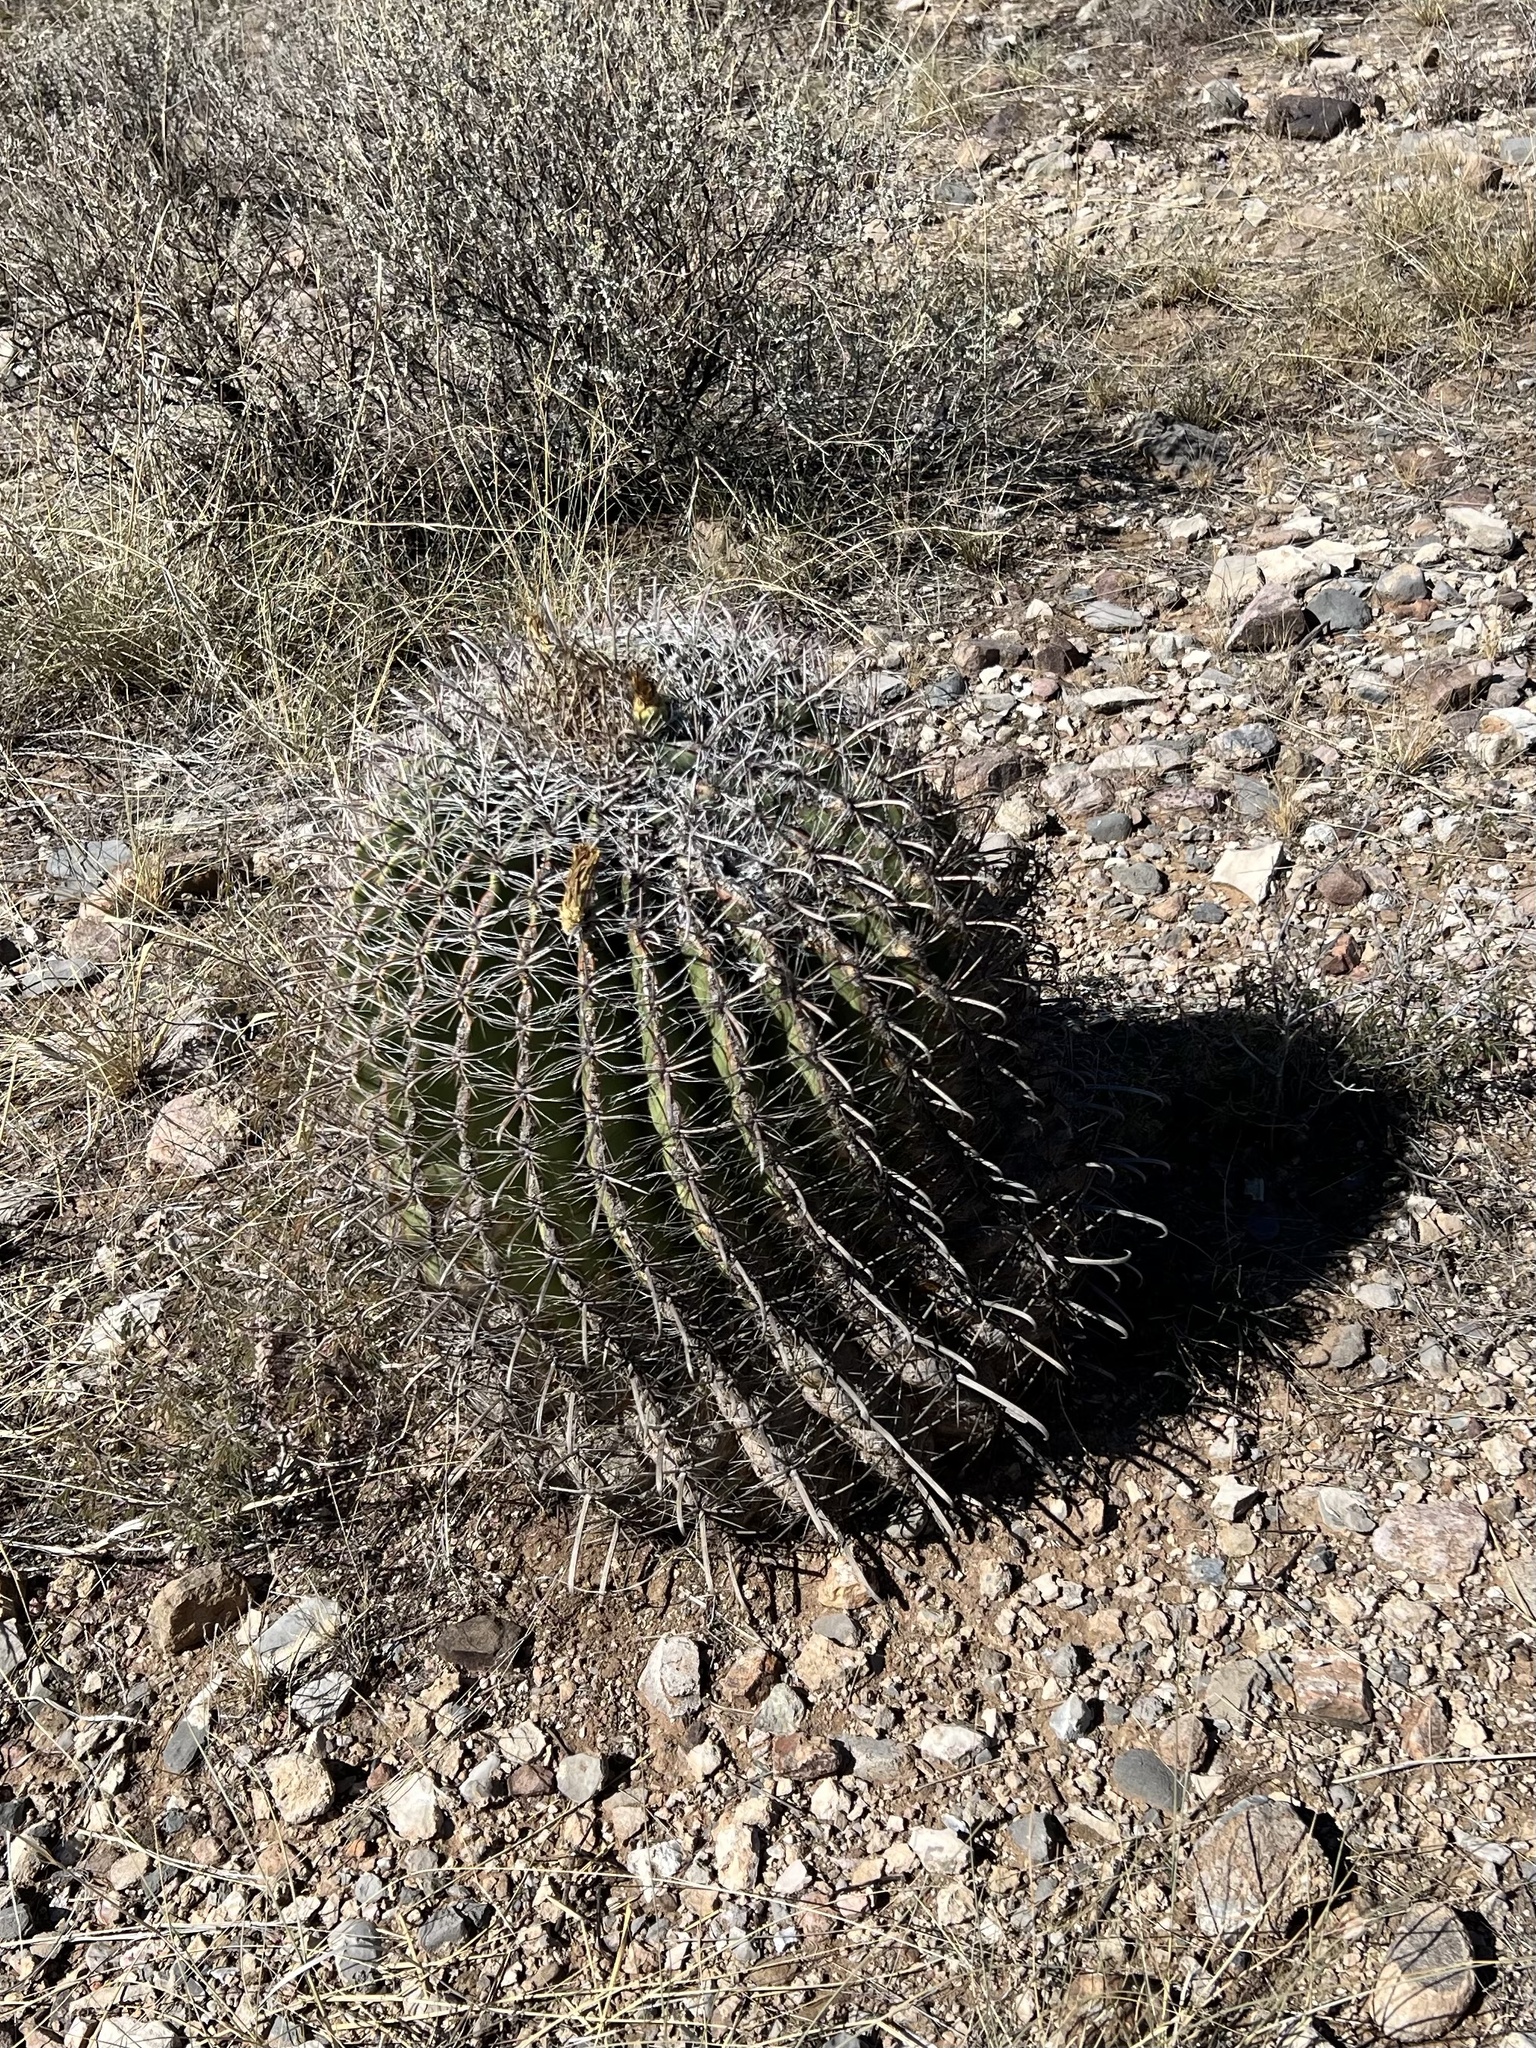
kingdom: Plantae
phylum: Tracheophyta
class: Magnoliopsida
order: Caryophyllales
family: Cactaceae
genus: Ferocactus
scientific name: Ferocactus wislizeni
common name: Candy barrel cactus
